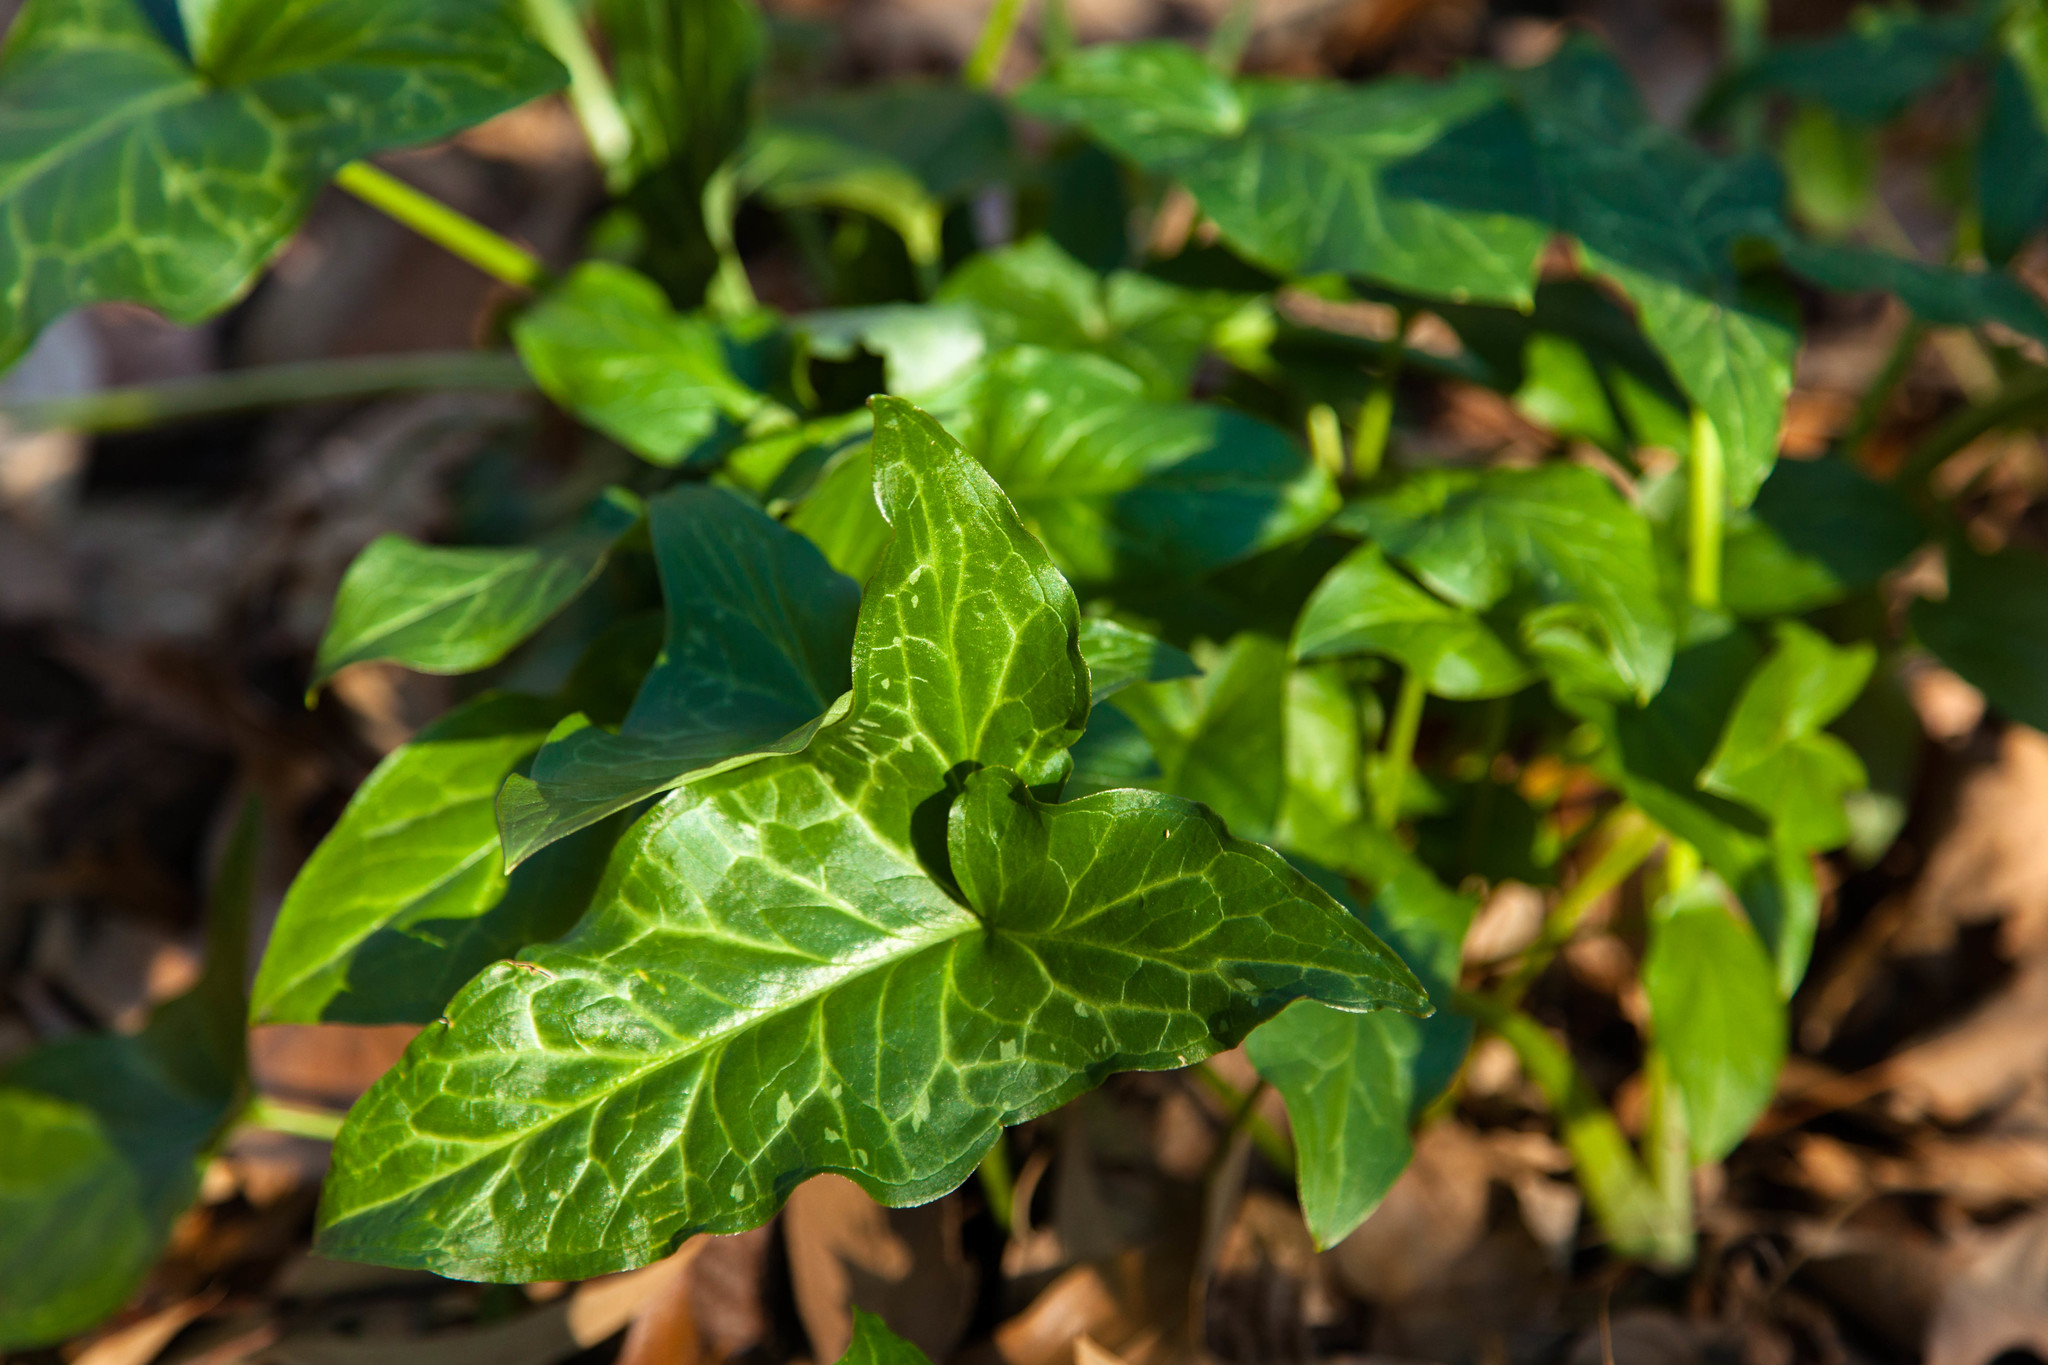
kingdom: Plantae
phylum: Tracheophyta
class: Liliopsida
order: Alismatales
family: Araceae
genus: Arum
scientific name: Arum italicum
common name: Italian lords-and-ladies
